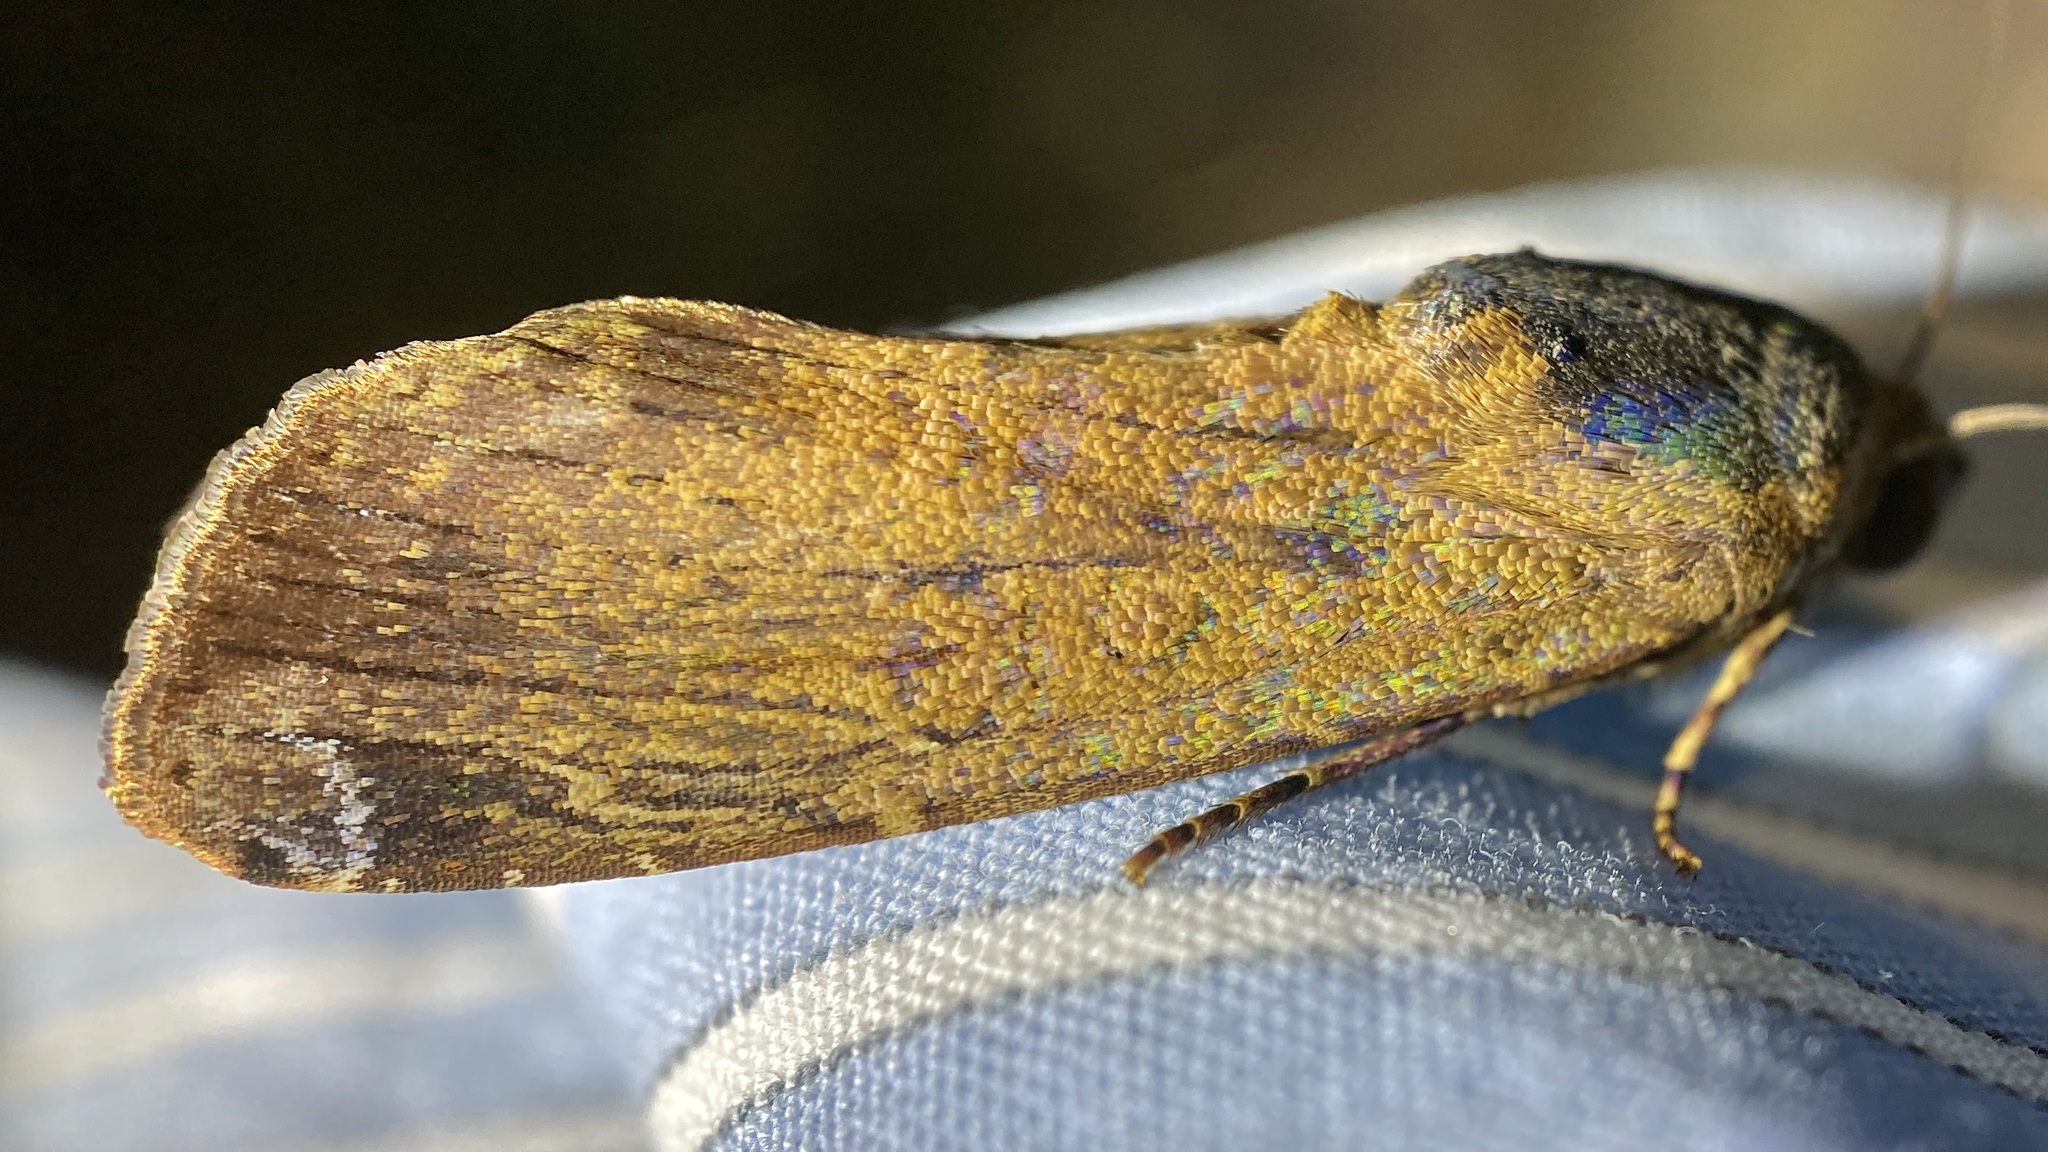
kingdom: Animalia
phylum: Arthropoda
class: Insecta
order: Lepidoptera
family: Noctuidae
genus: Magusa
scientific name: Magusa divaricata
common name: Orb narrow-winged moth
